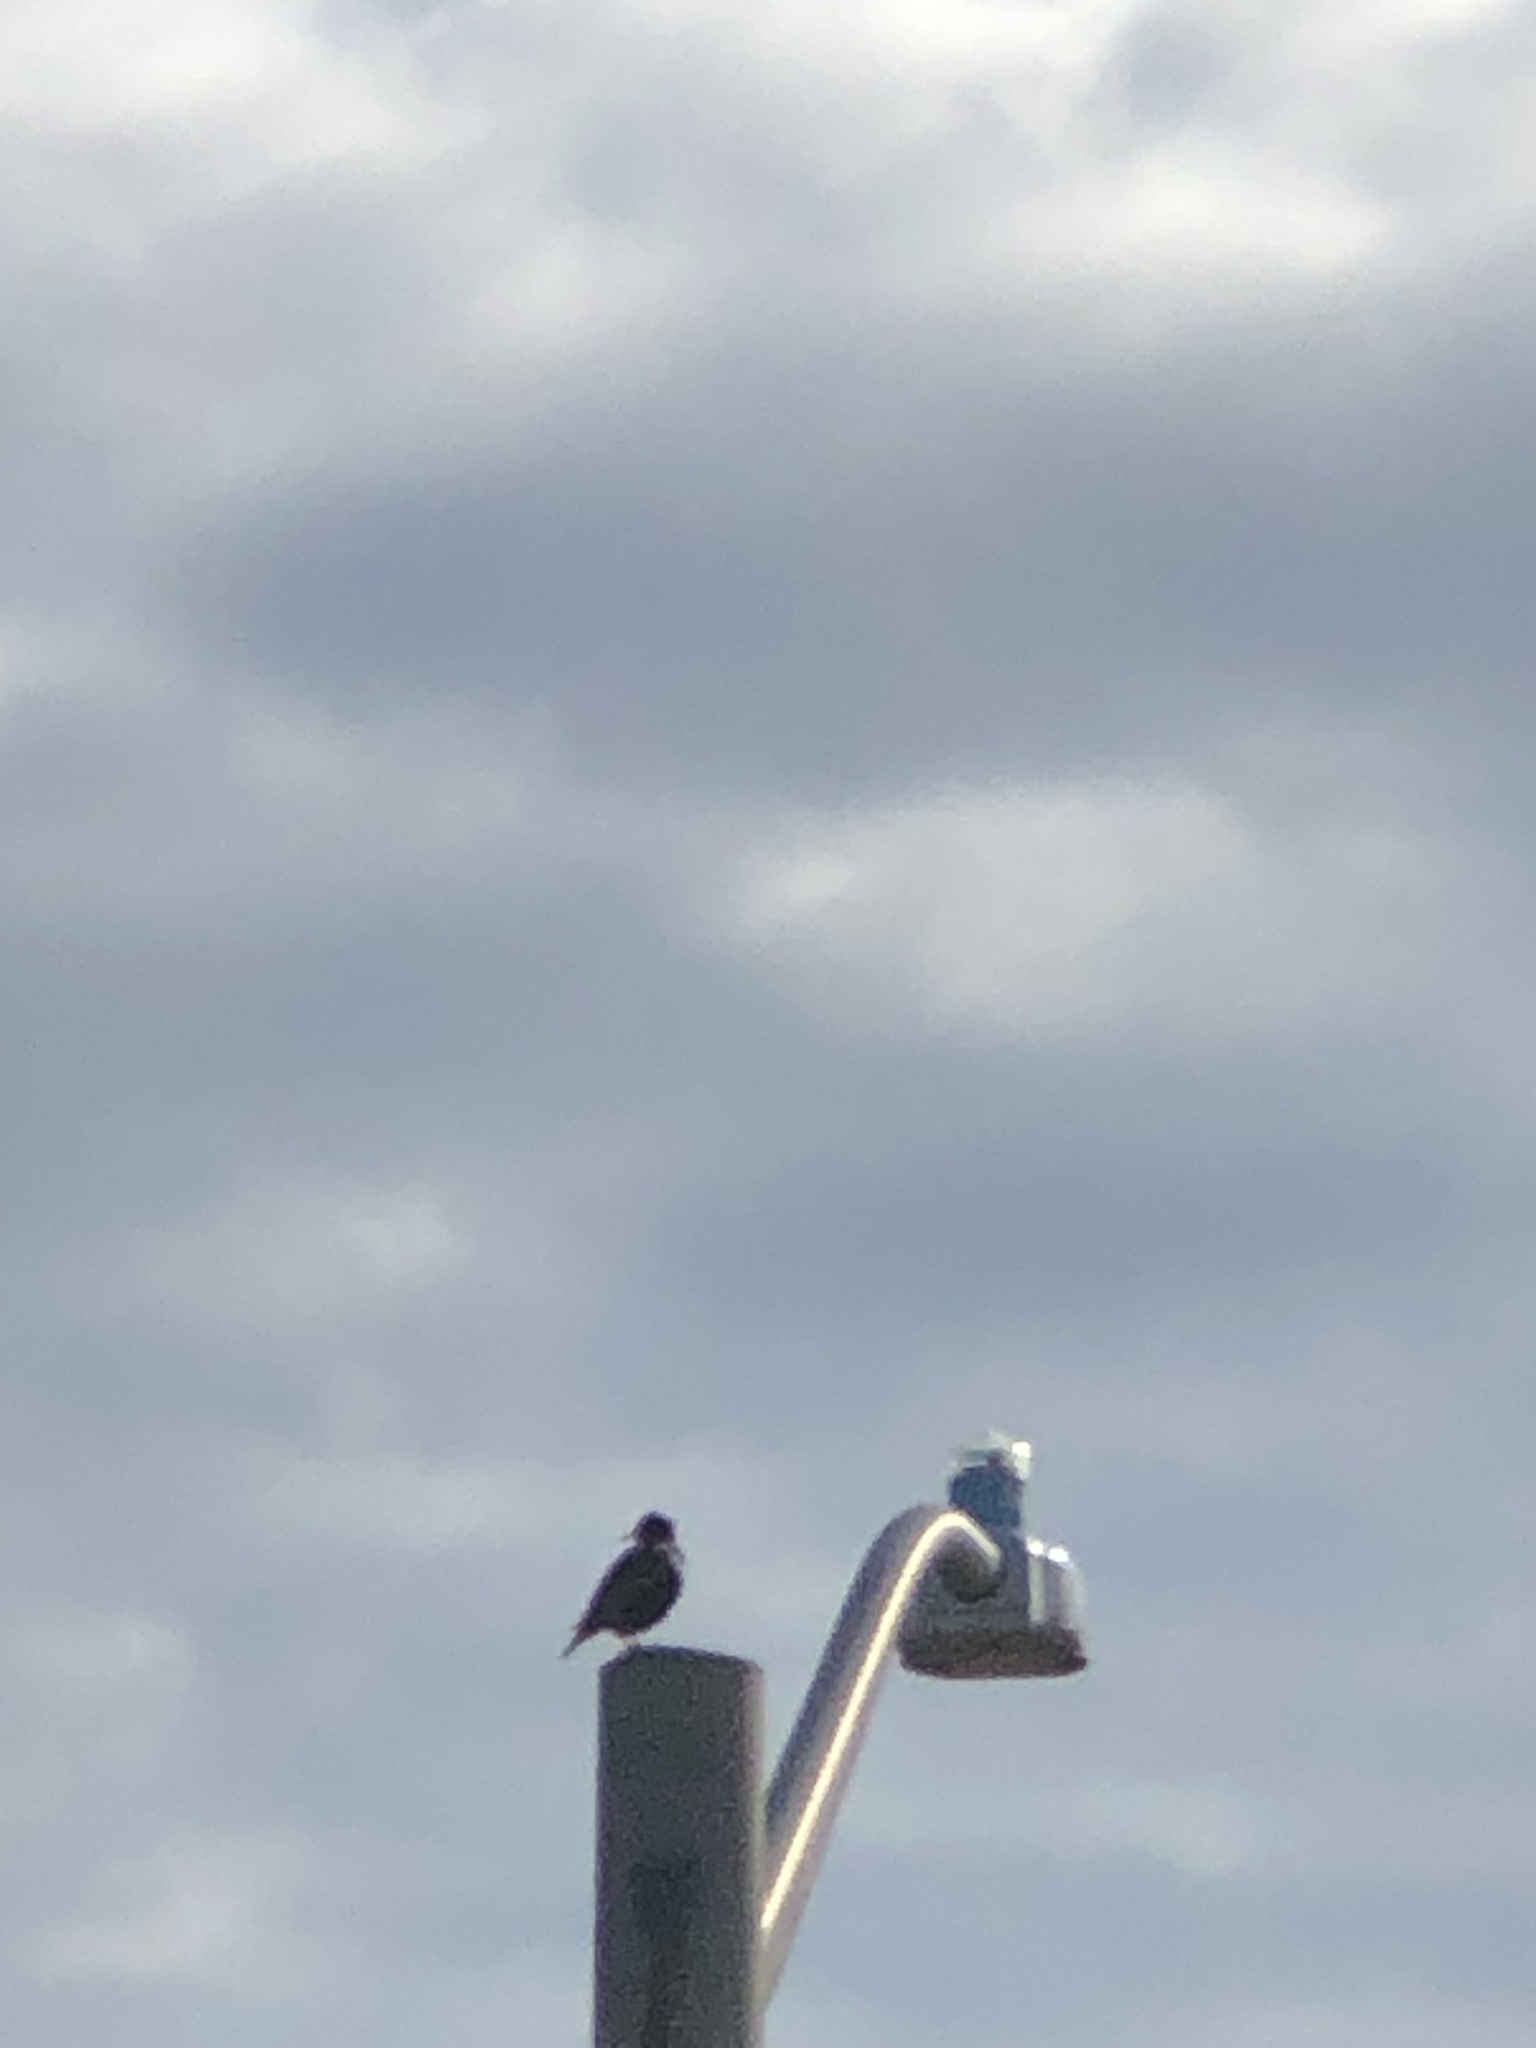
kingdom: Animalia
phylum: Chordata
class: Aves
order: Passeriformes
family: Sturnidae
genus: Sturnus
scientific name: Sturnus vulgaris
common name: Common starling
